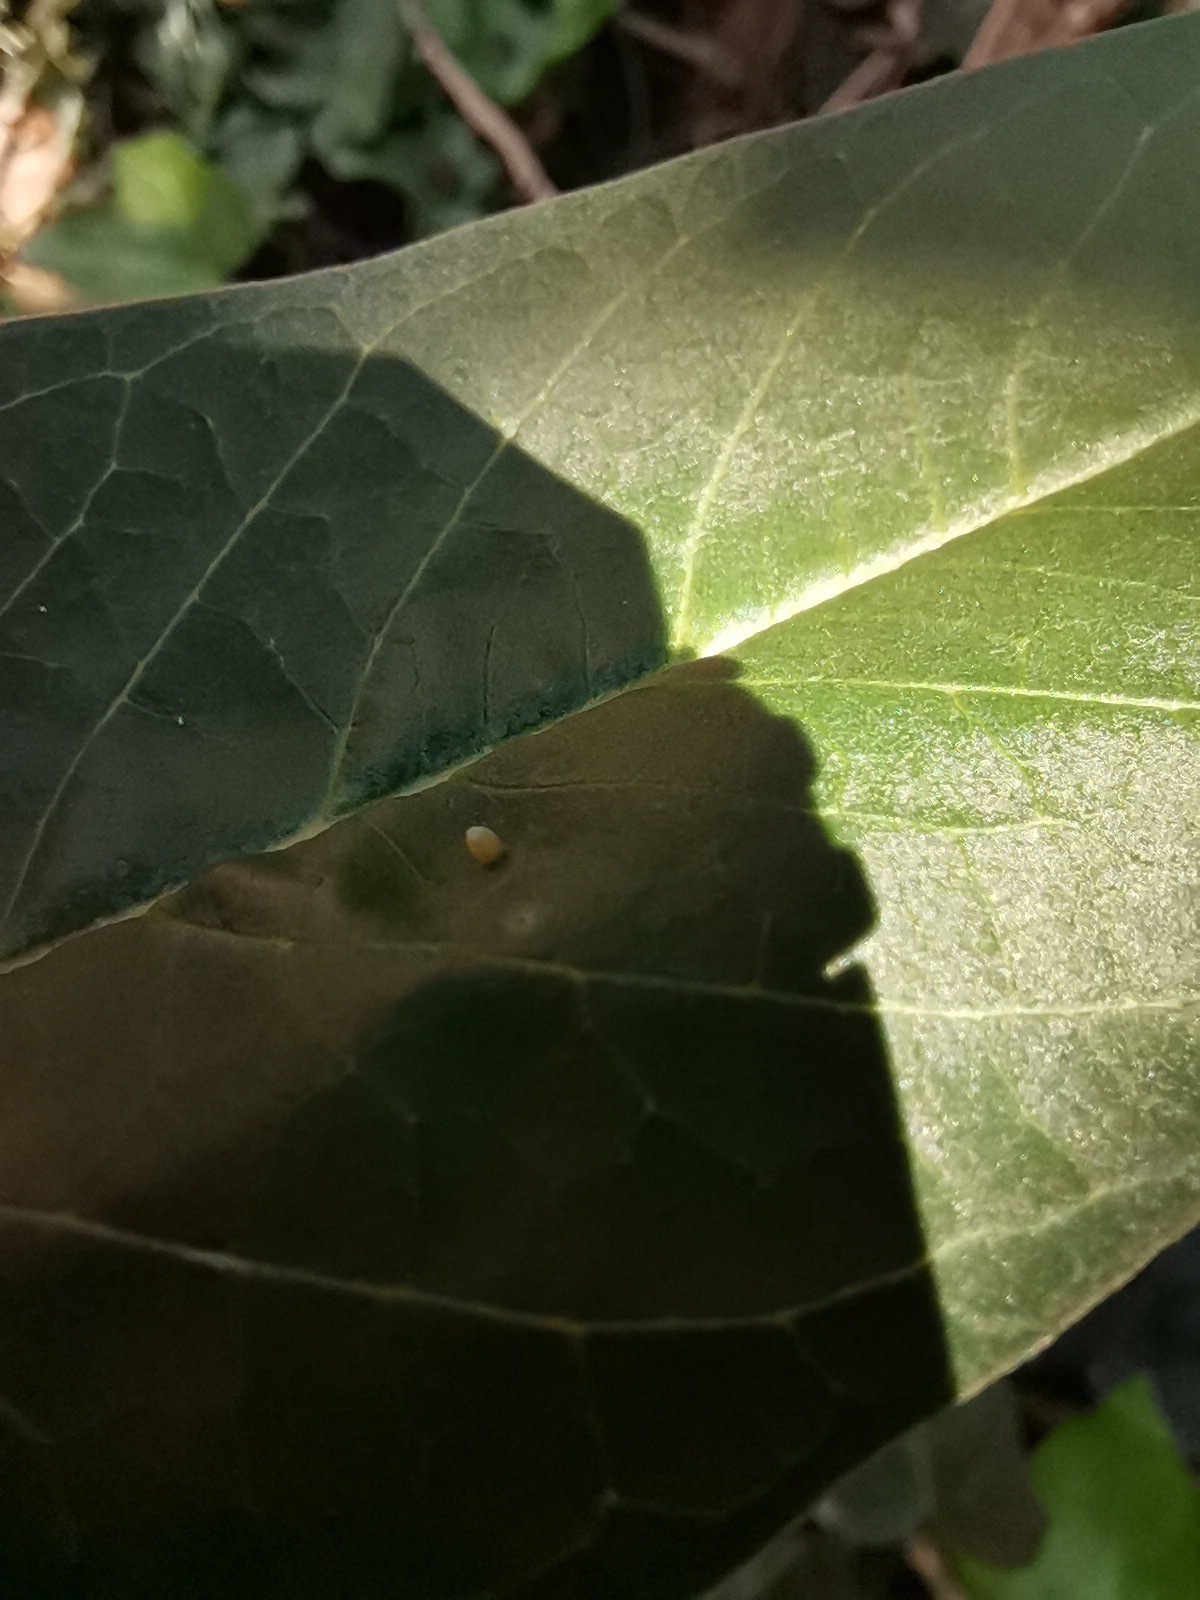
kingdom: Animalia
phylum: Arthropoda
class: Insecta
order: Lepidoptera
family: Nymphalidae
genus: Danaus
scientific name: Danaus plexippus
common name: Monarch
